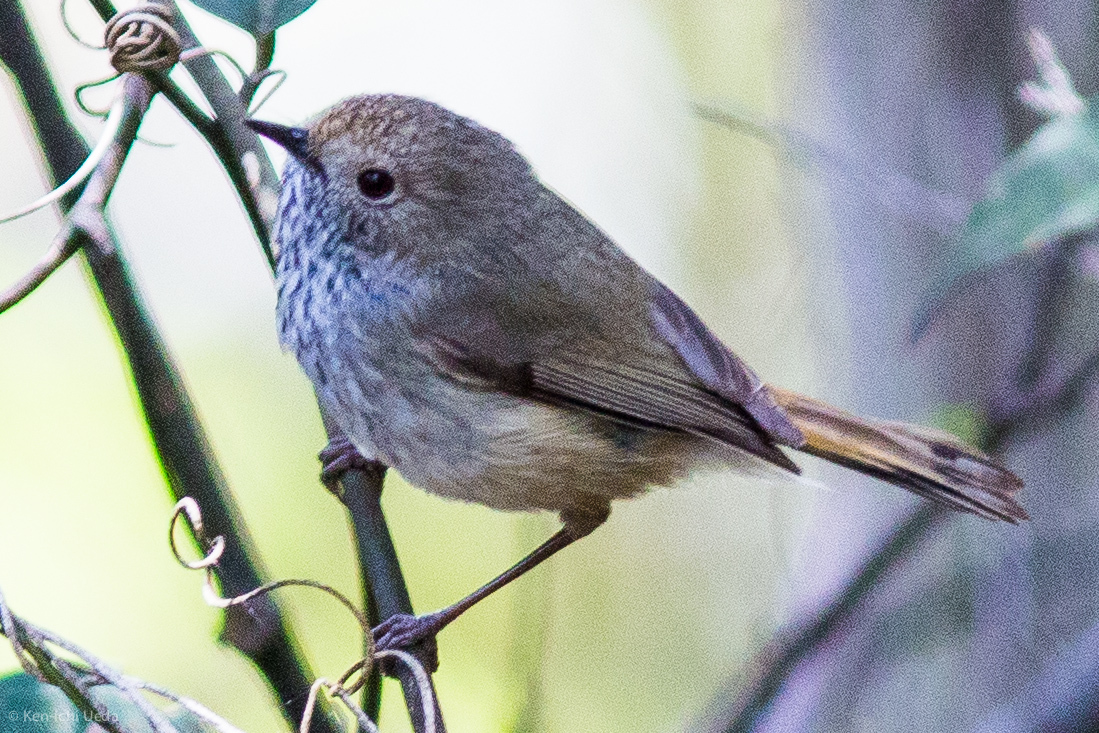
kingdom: Animalia
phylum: Chordata
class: Aves
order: Passeriformes
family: Acanthizidae
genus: Acanthiza
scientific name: Acanthiza pusilla
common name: Brown thornbill
